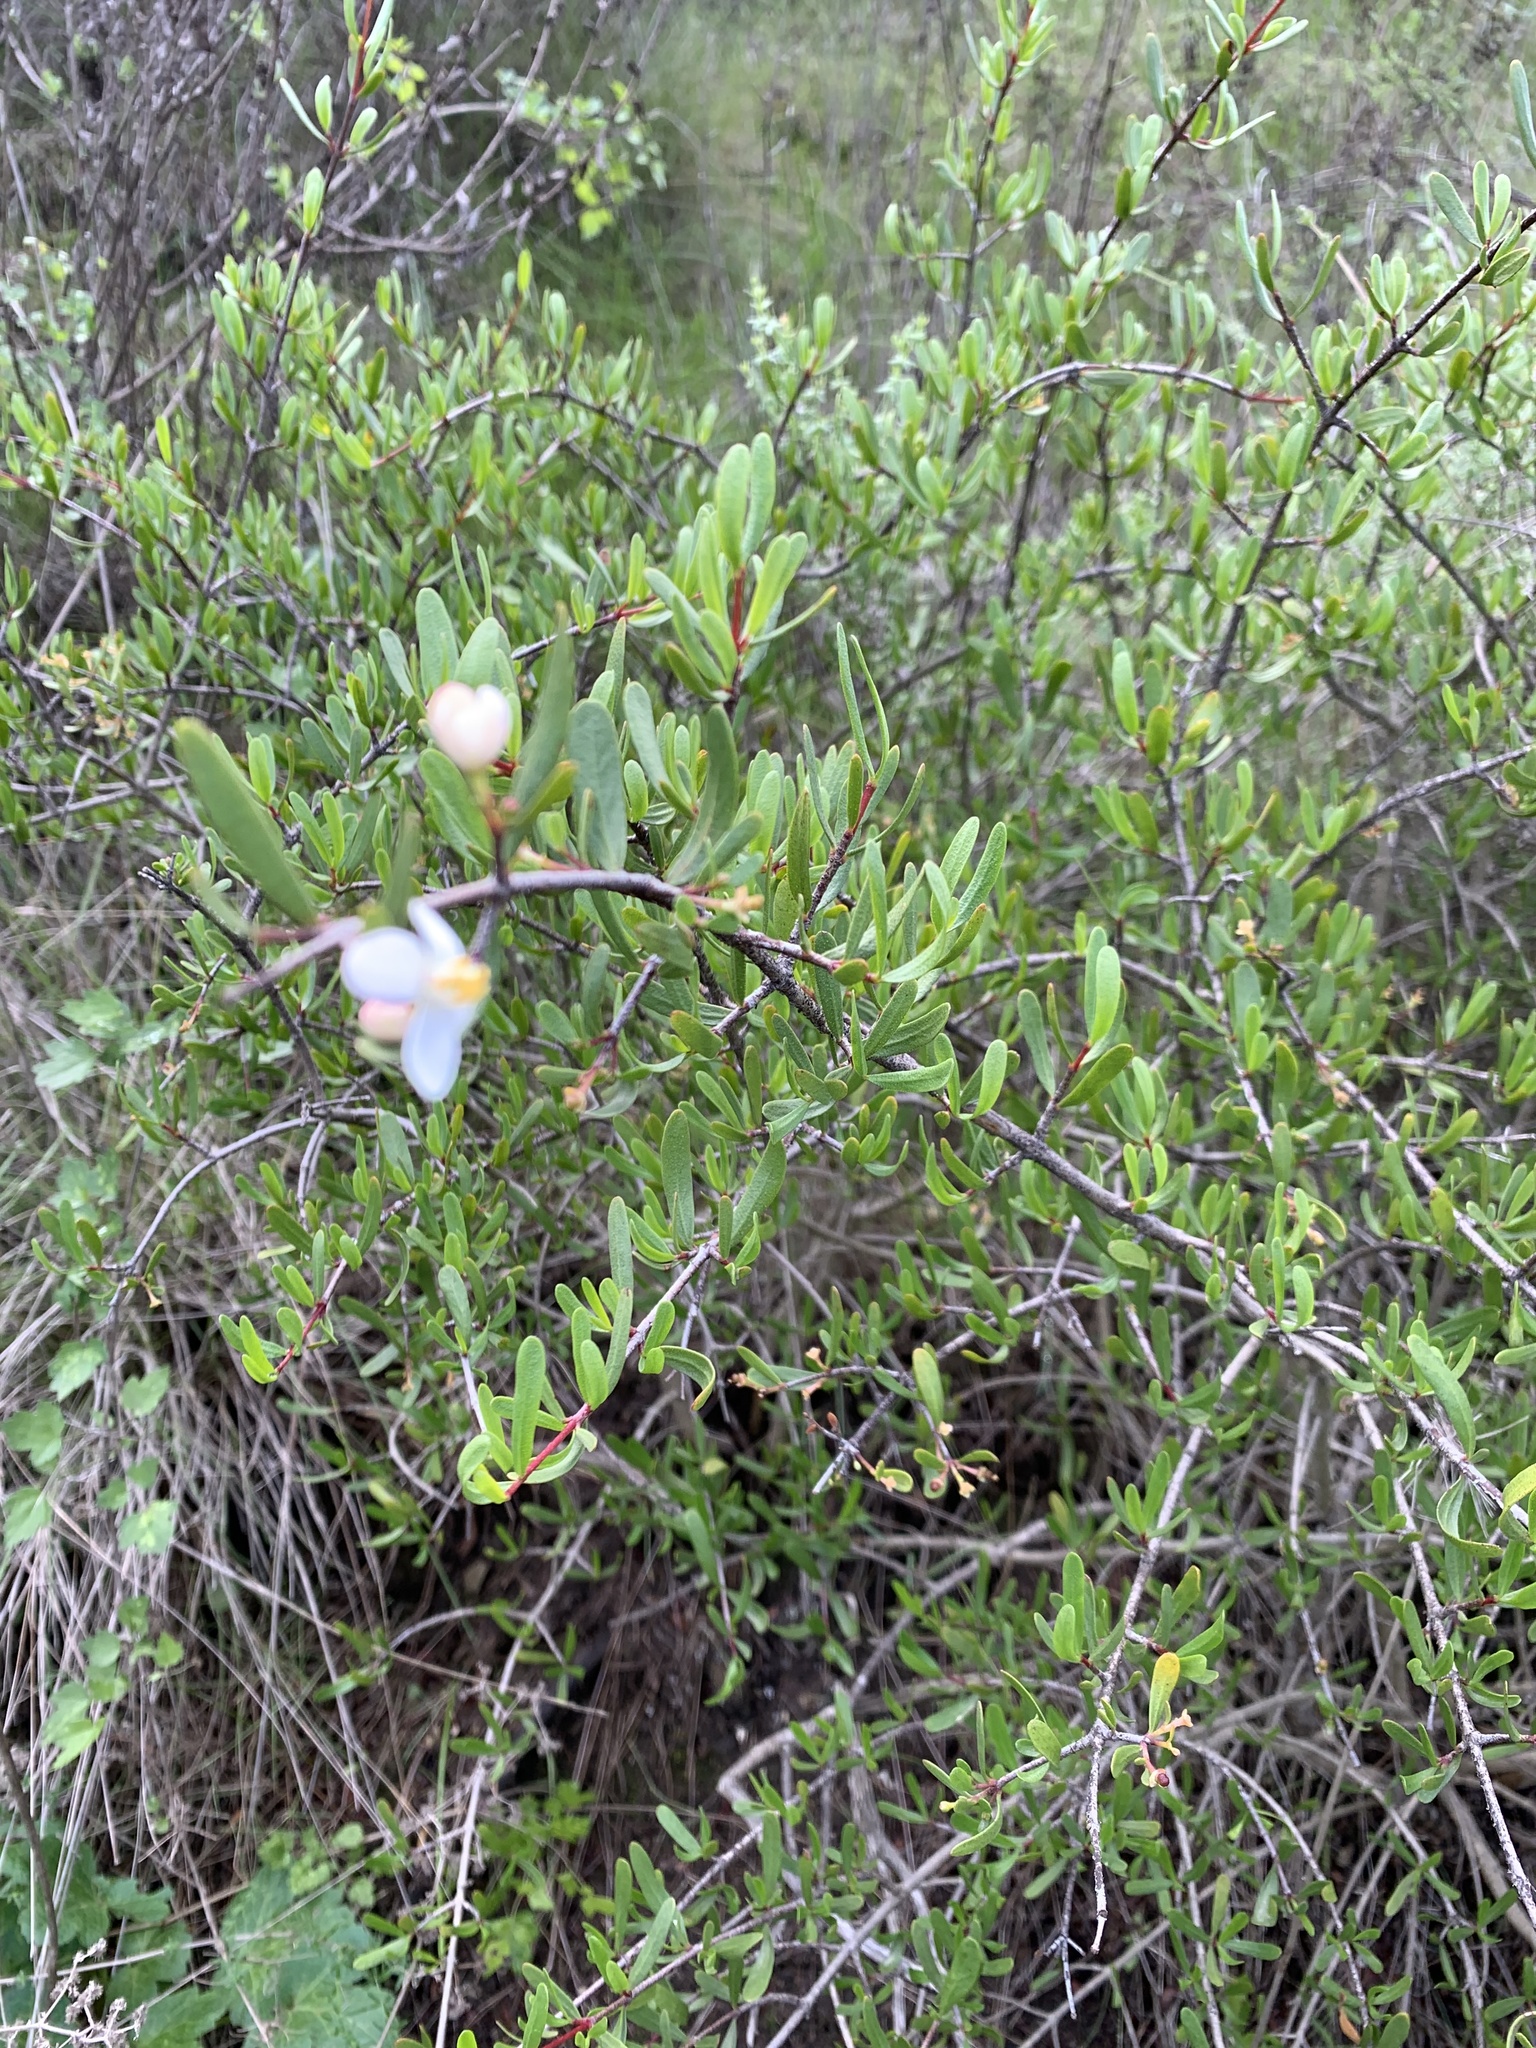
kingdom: Plantae
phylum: Tracheophyta
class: Magnoliopsida
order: Sapindales
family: Rutaceae
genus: Cneoridium
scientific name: Cneoridium dumosum
